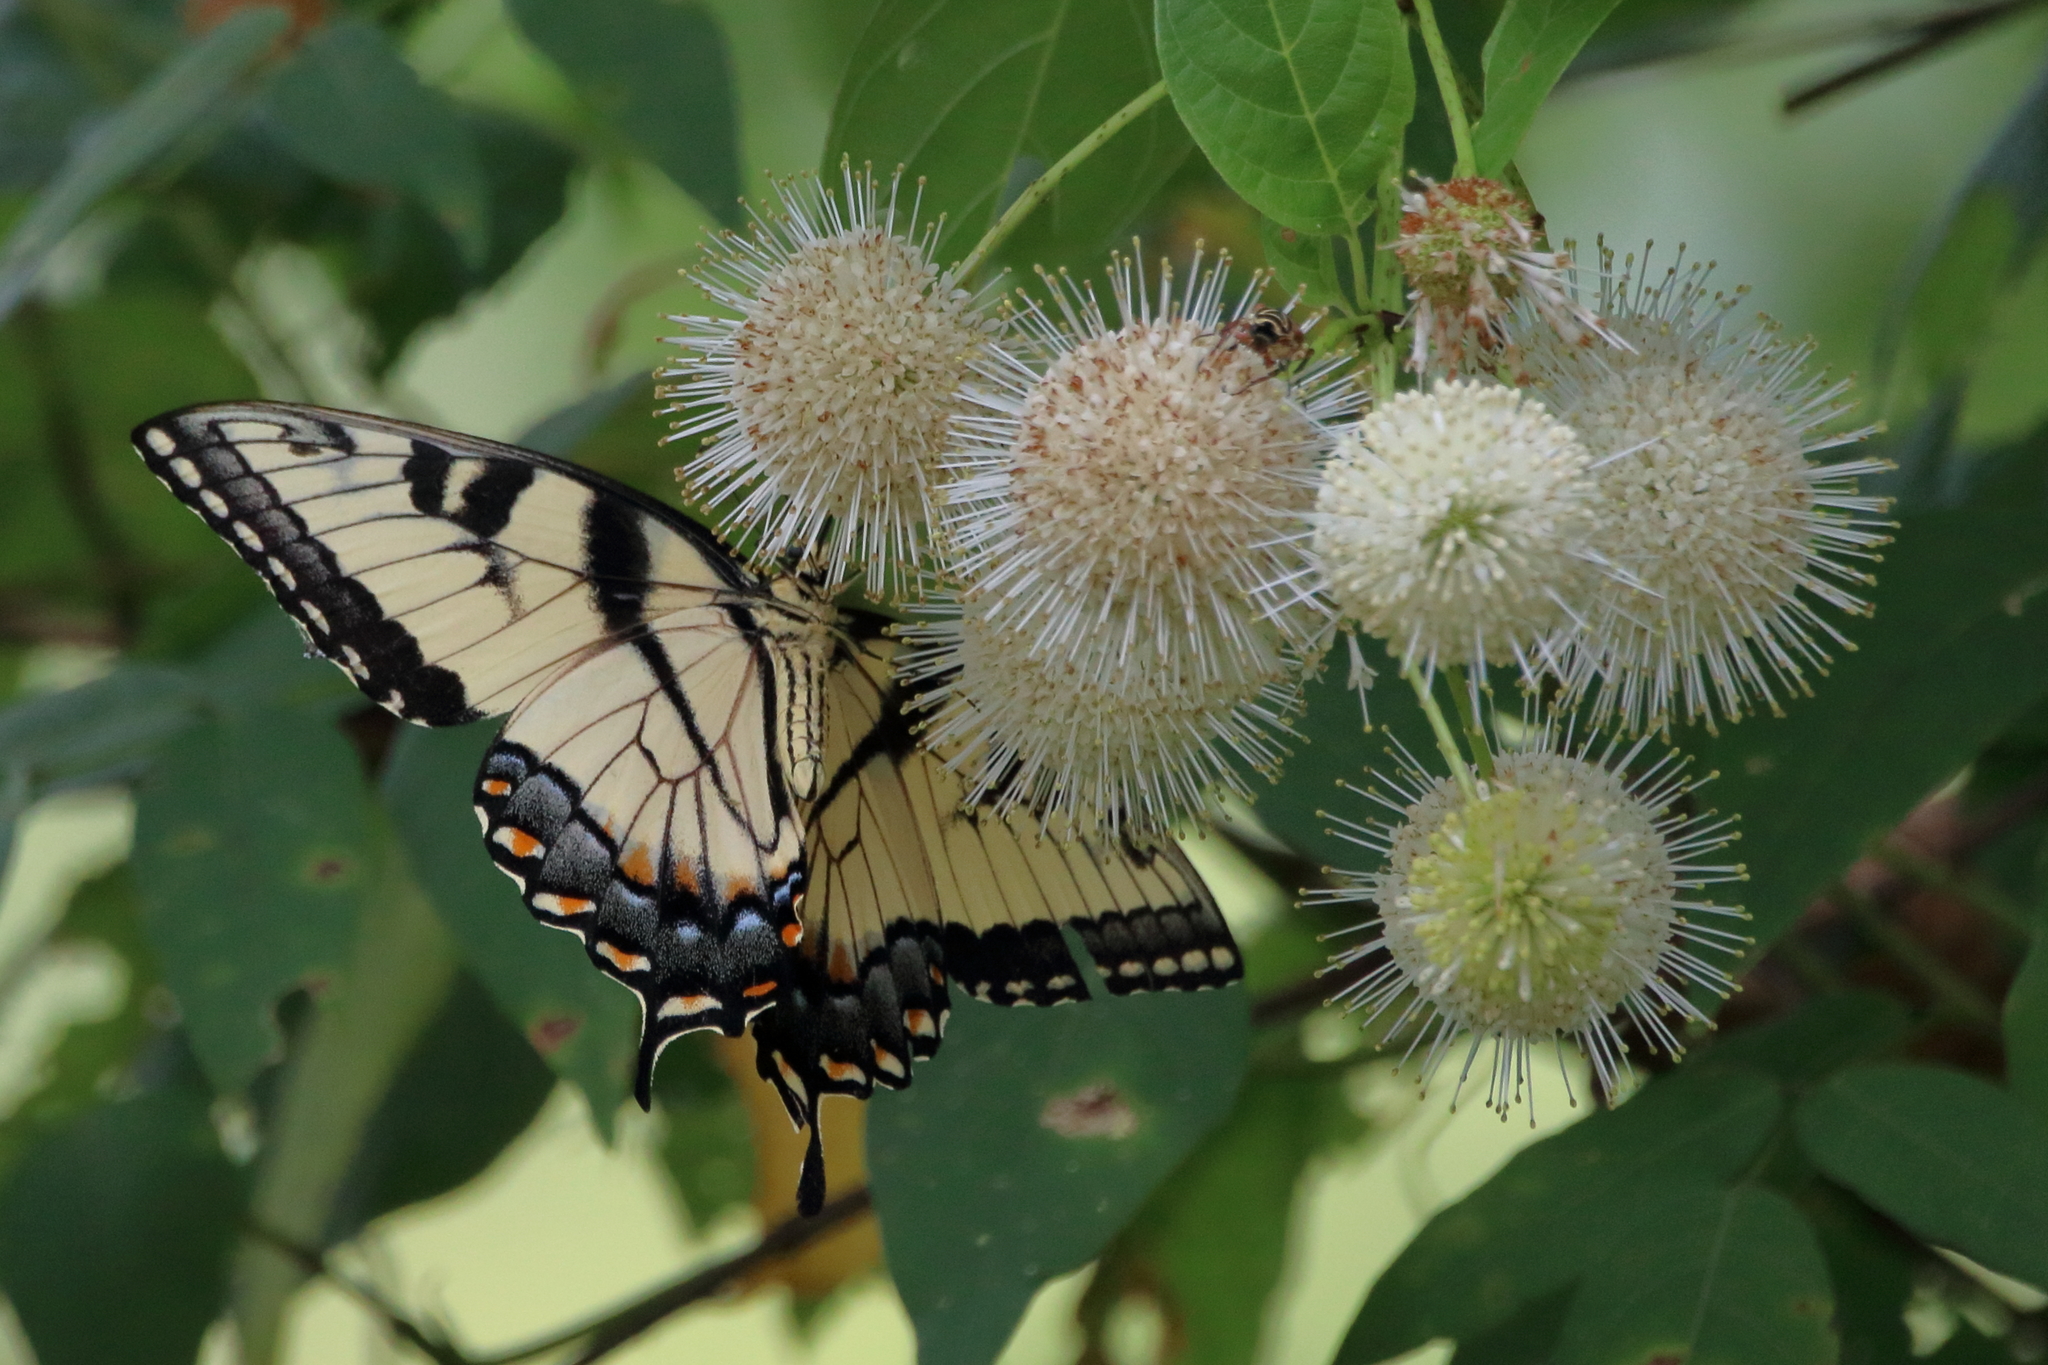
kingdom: Animalia
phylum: Arthropoda
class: Insecta
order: Lepidoptera
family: Papilionidae
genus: Papilio
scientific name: Papilio glaucus
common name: Tiger swallowtail
